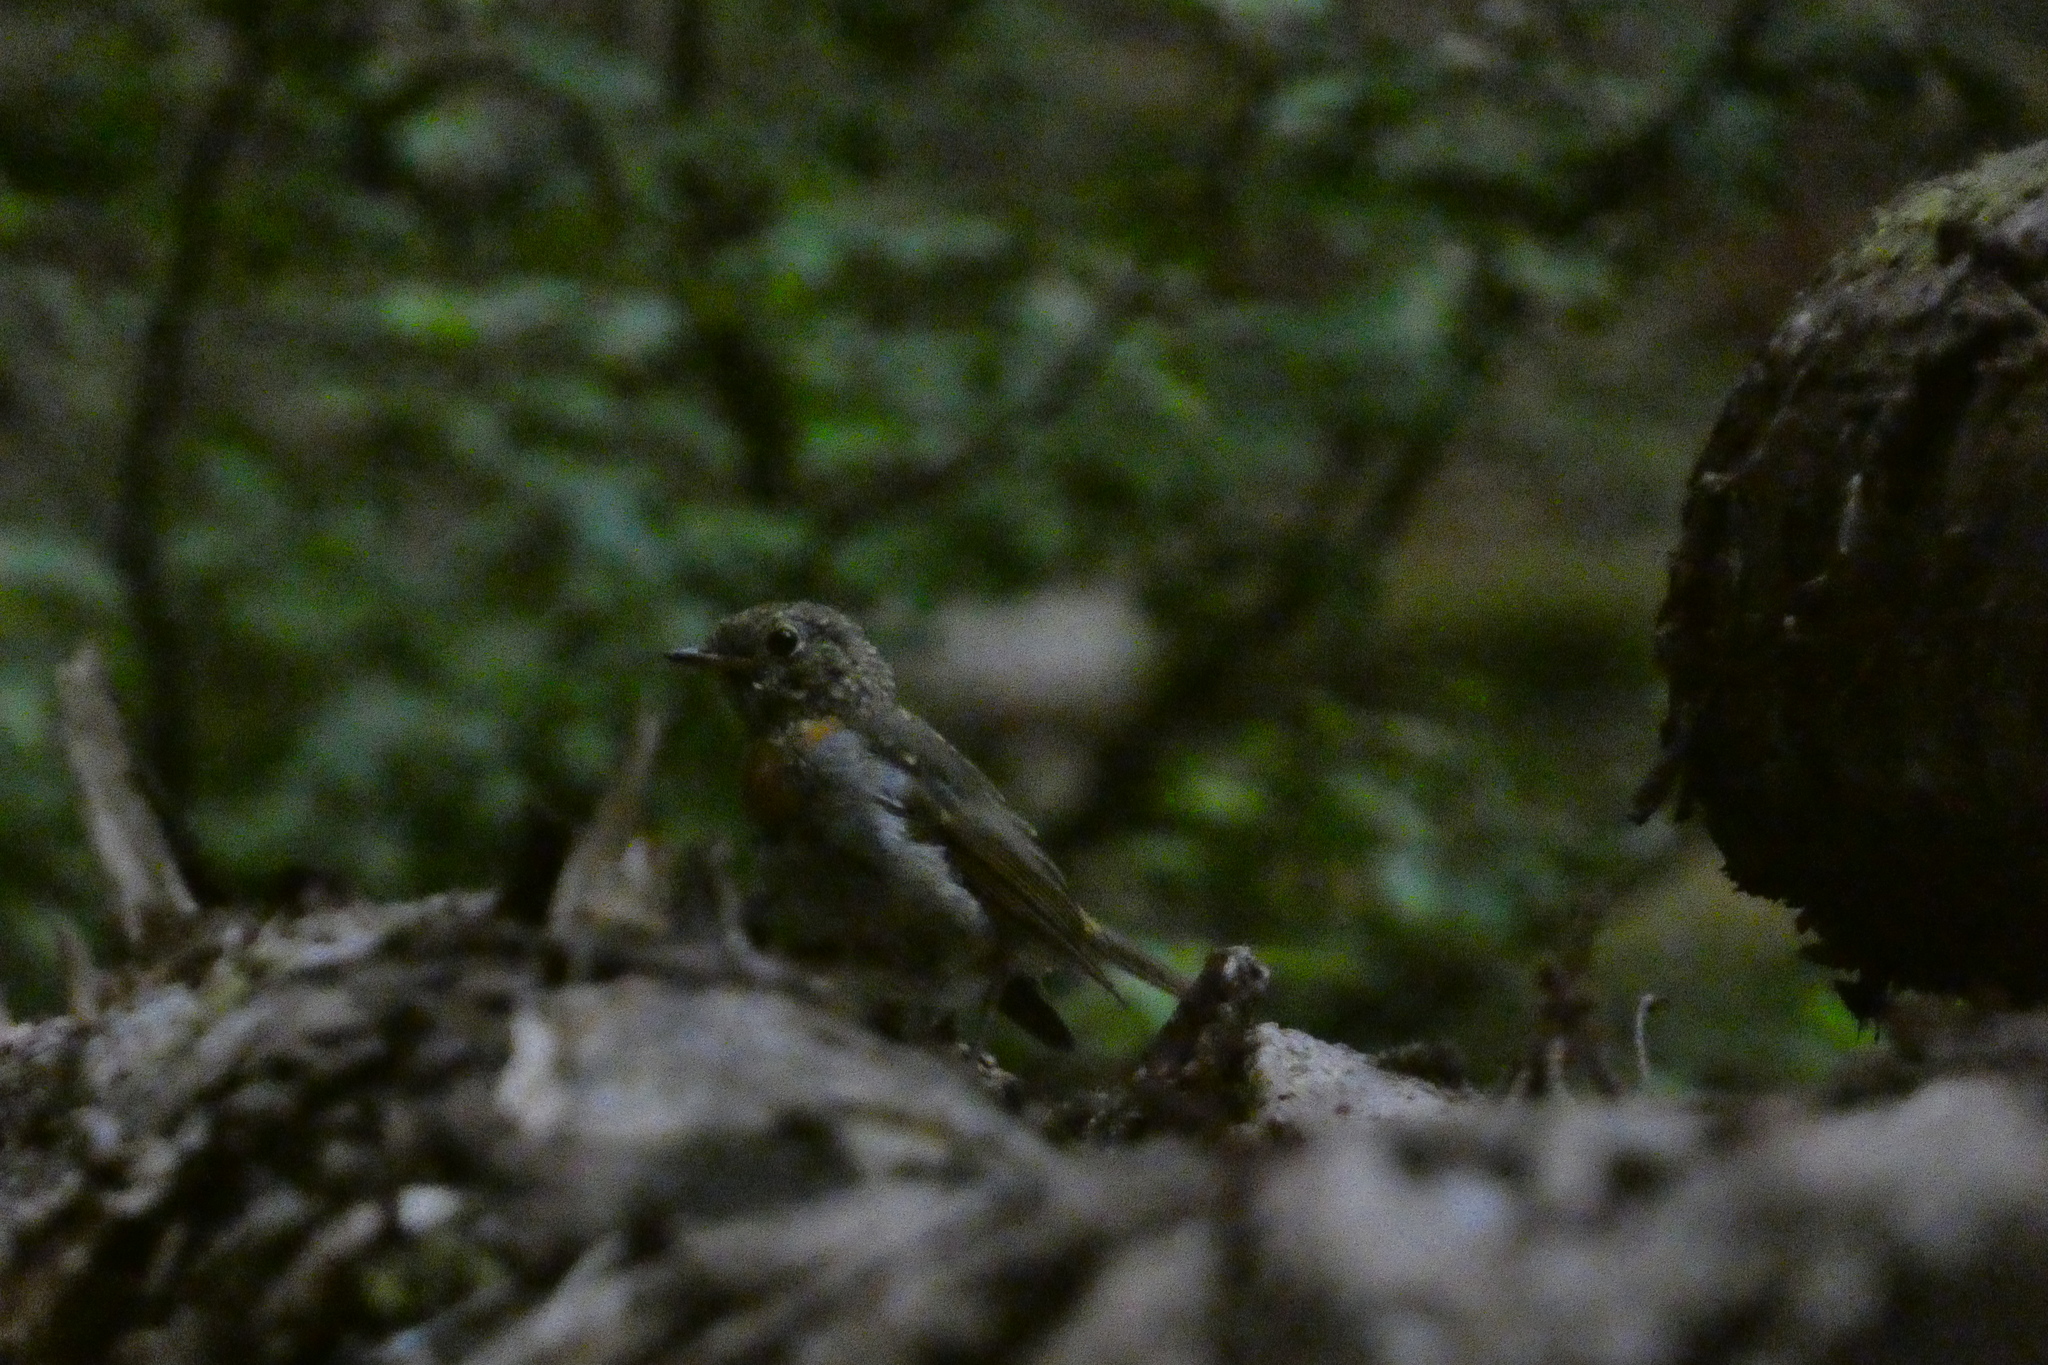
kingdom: Animalia
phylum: Chordata
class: Aves
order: Passeriformes
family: Muscicapidae
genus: Erithacus
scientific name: Erithacus rubecula
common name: European robin
